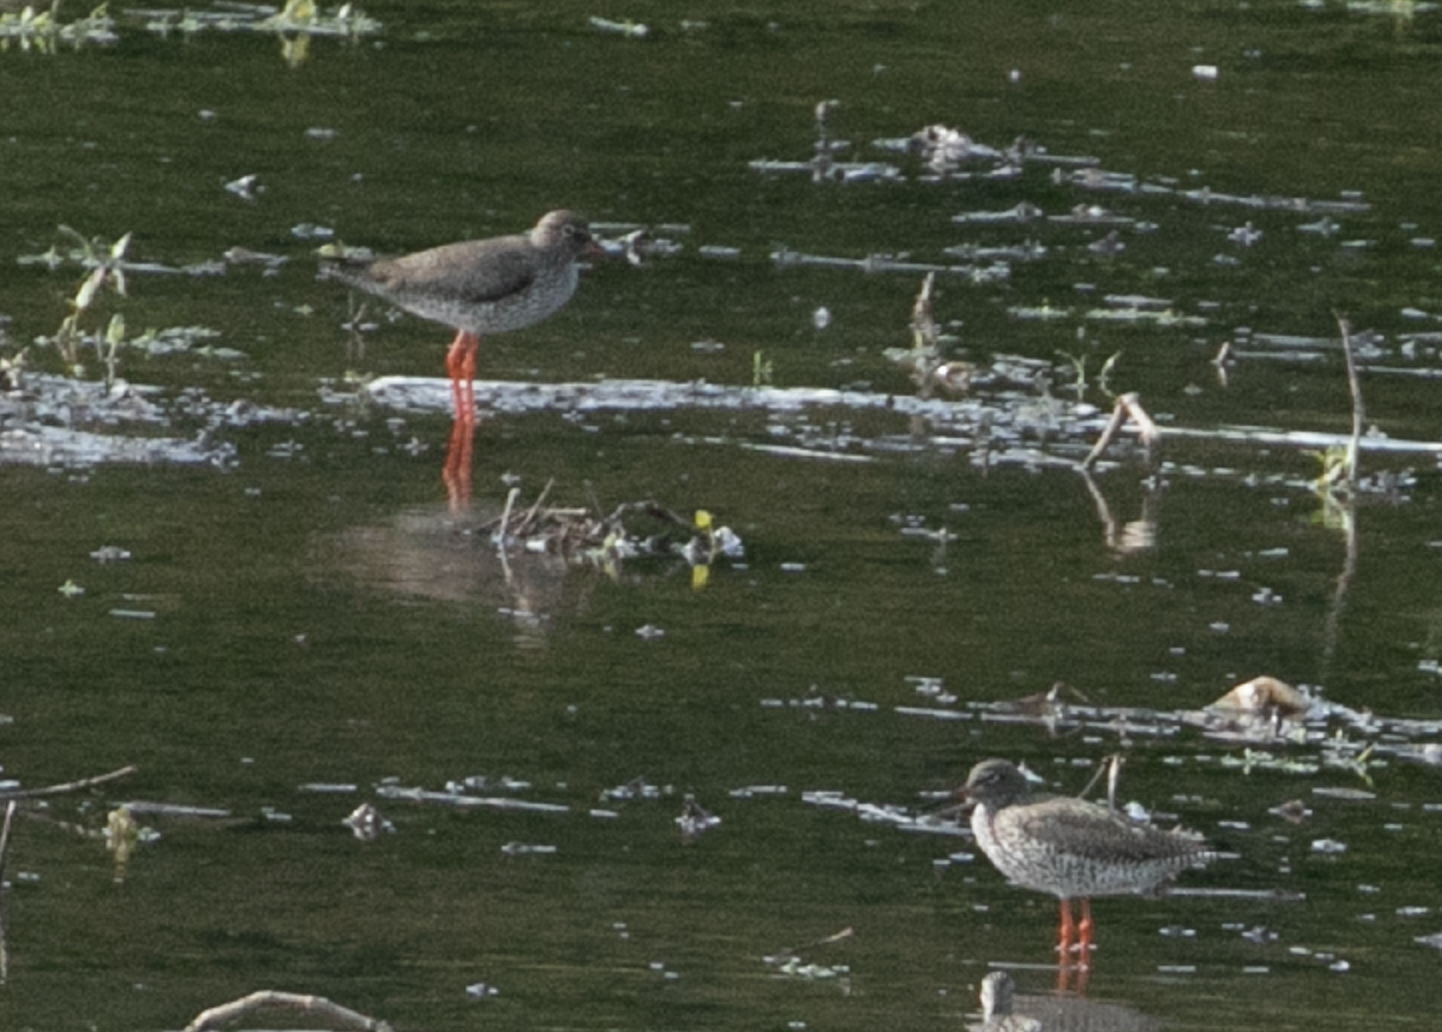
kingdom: Animalia
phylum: Chordata
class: Aves
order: Charadriiformes
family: Scolopacidae
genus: Tringa
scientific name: Tringa totanus
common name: Common redshank
